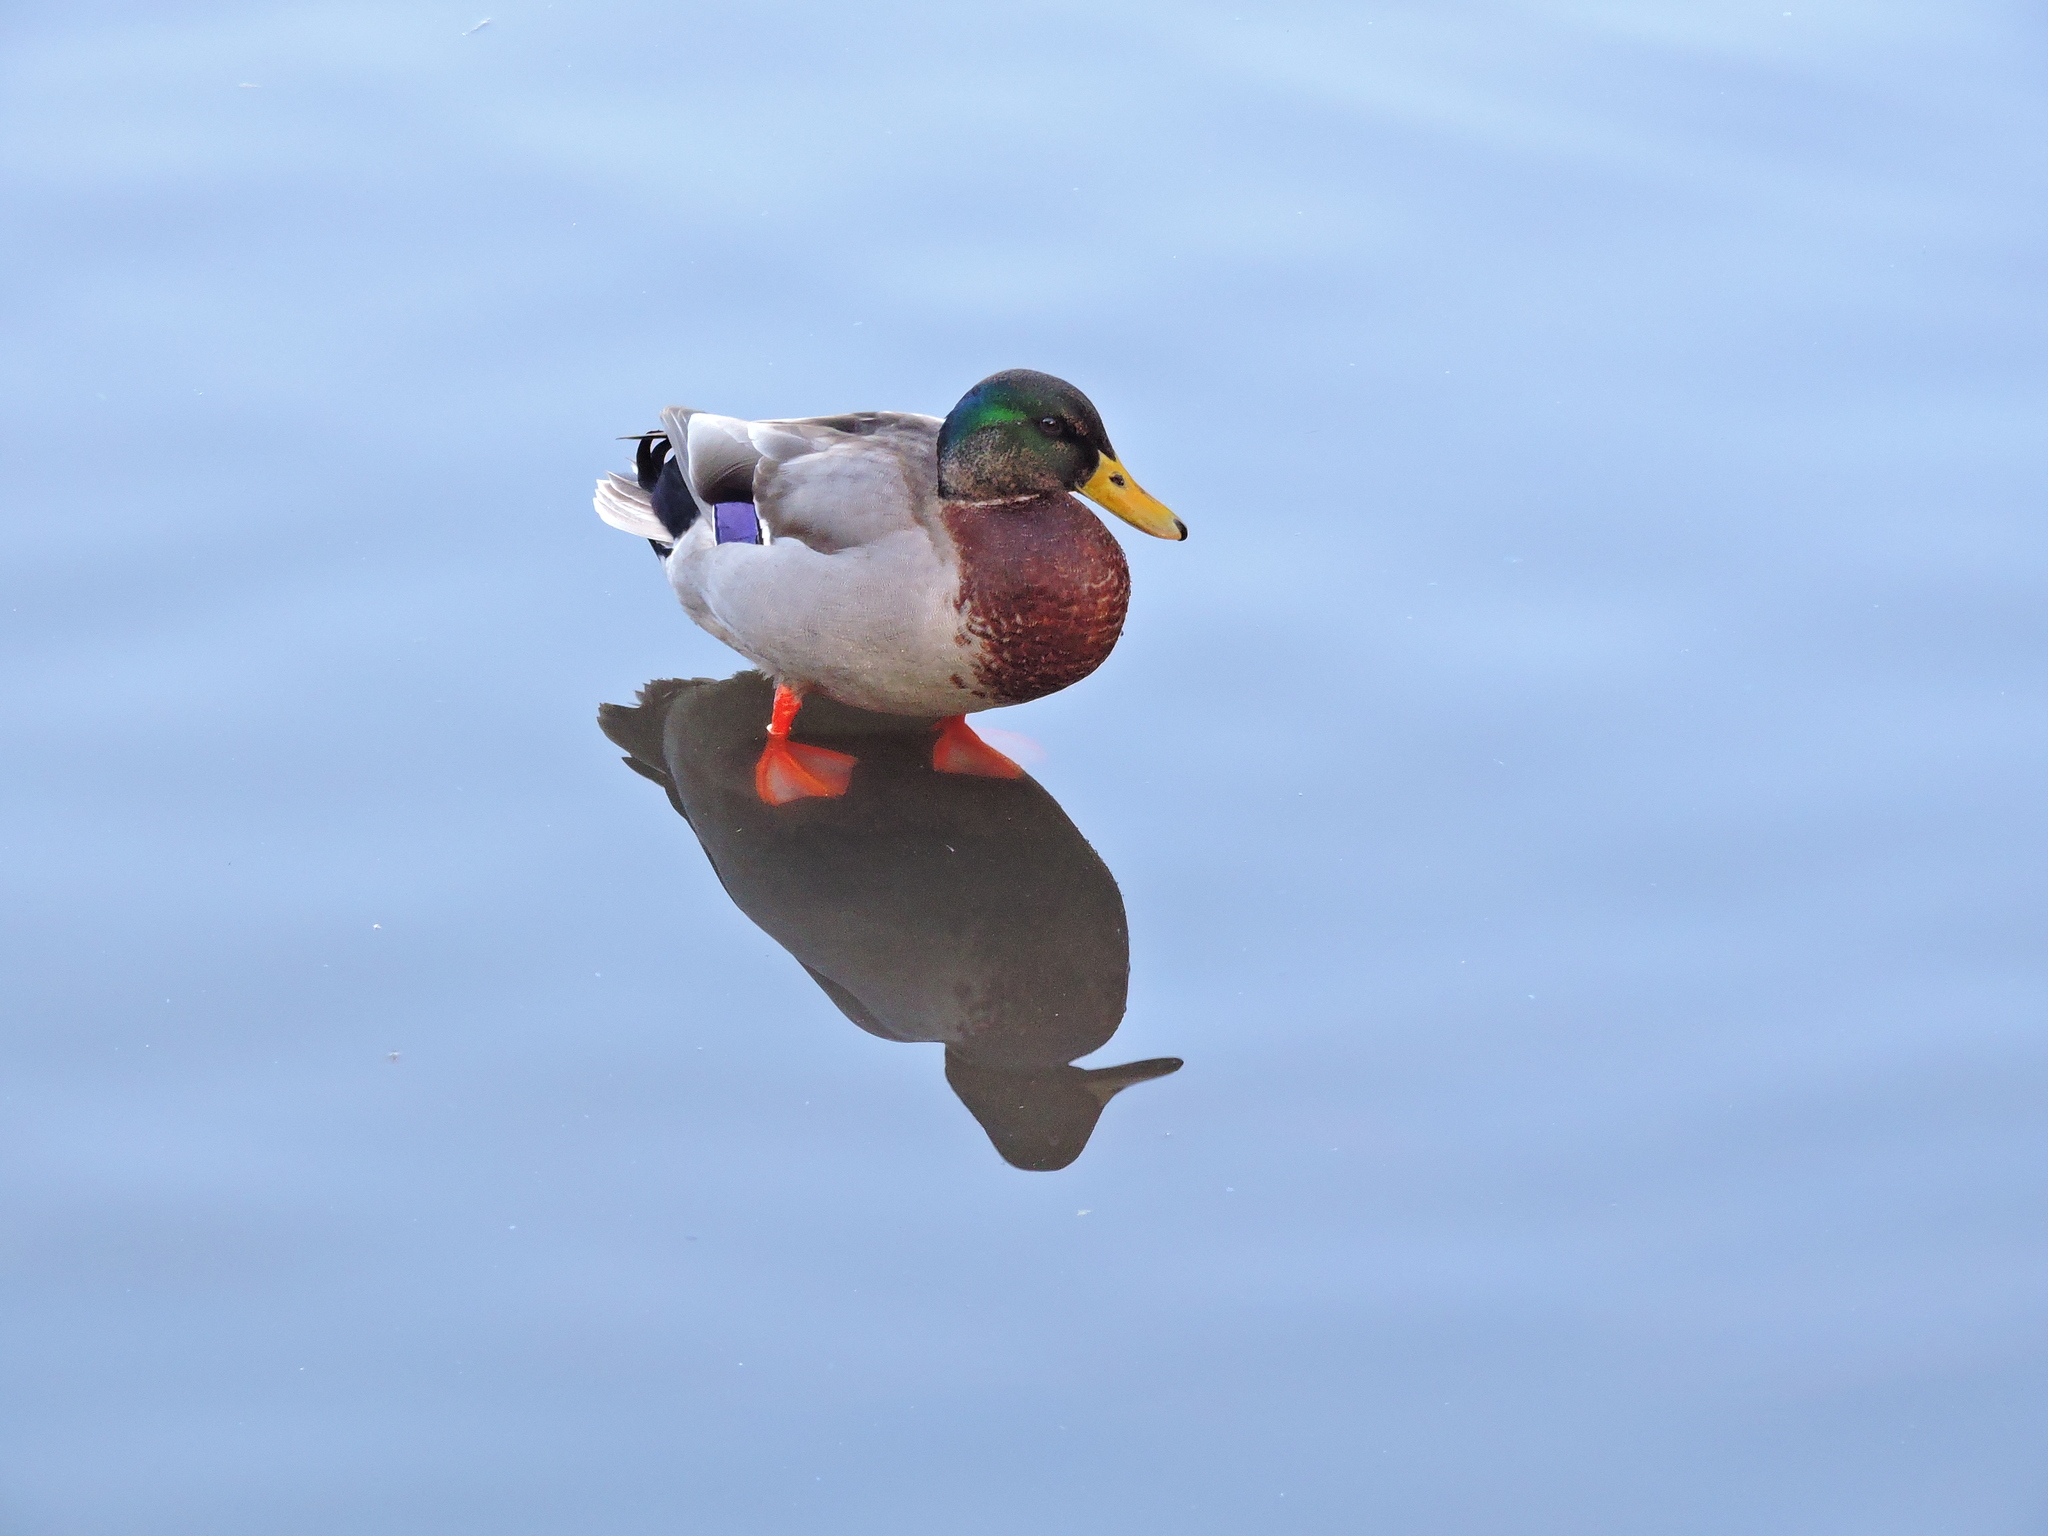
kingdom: Animalia
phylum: Chordata
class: Aves
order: Anseriformes
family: Anatidae
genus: Anas
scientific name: Anas platyrhynchos
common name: Mallard
